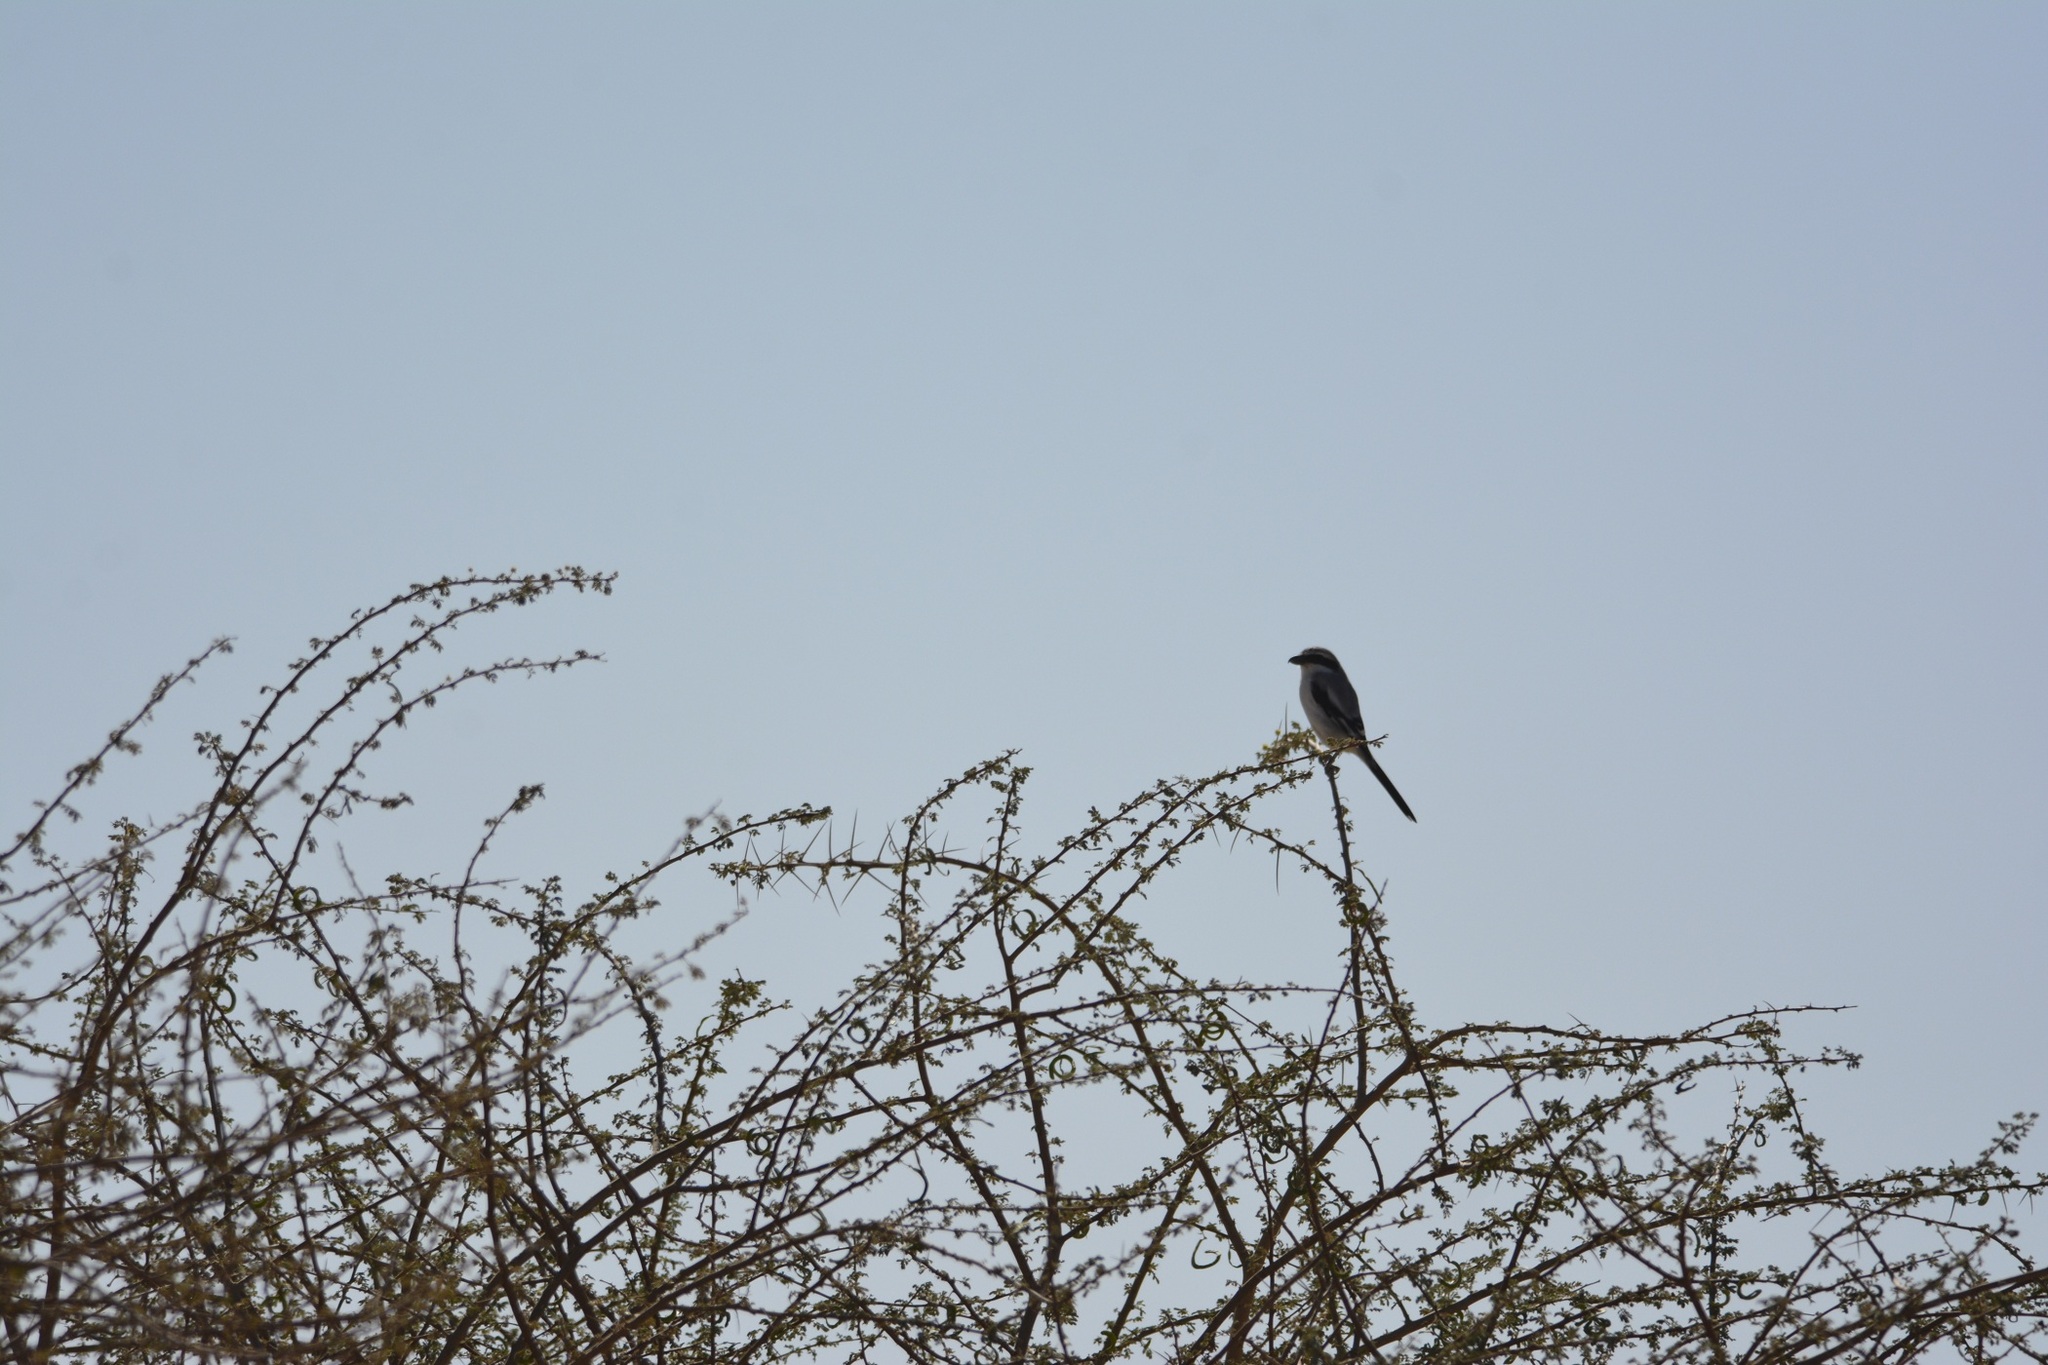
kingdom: Animalia
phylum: Chordata
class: Aves
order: Passeriformes
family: Laniidae
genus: Lanius
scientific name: Lanius excubitor
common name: Great grey shrike
